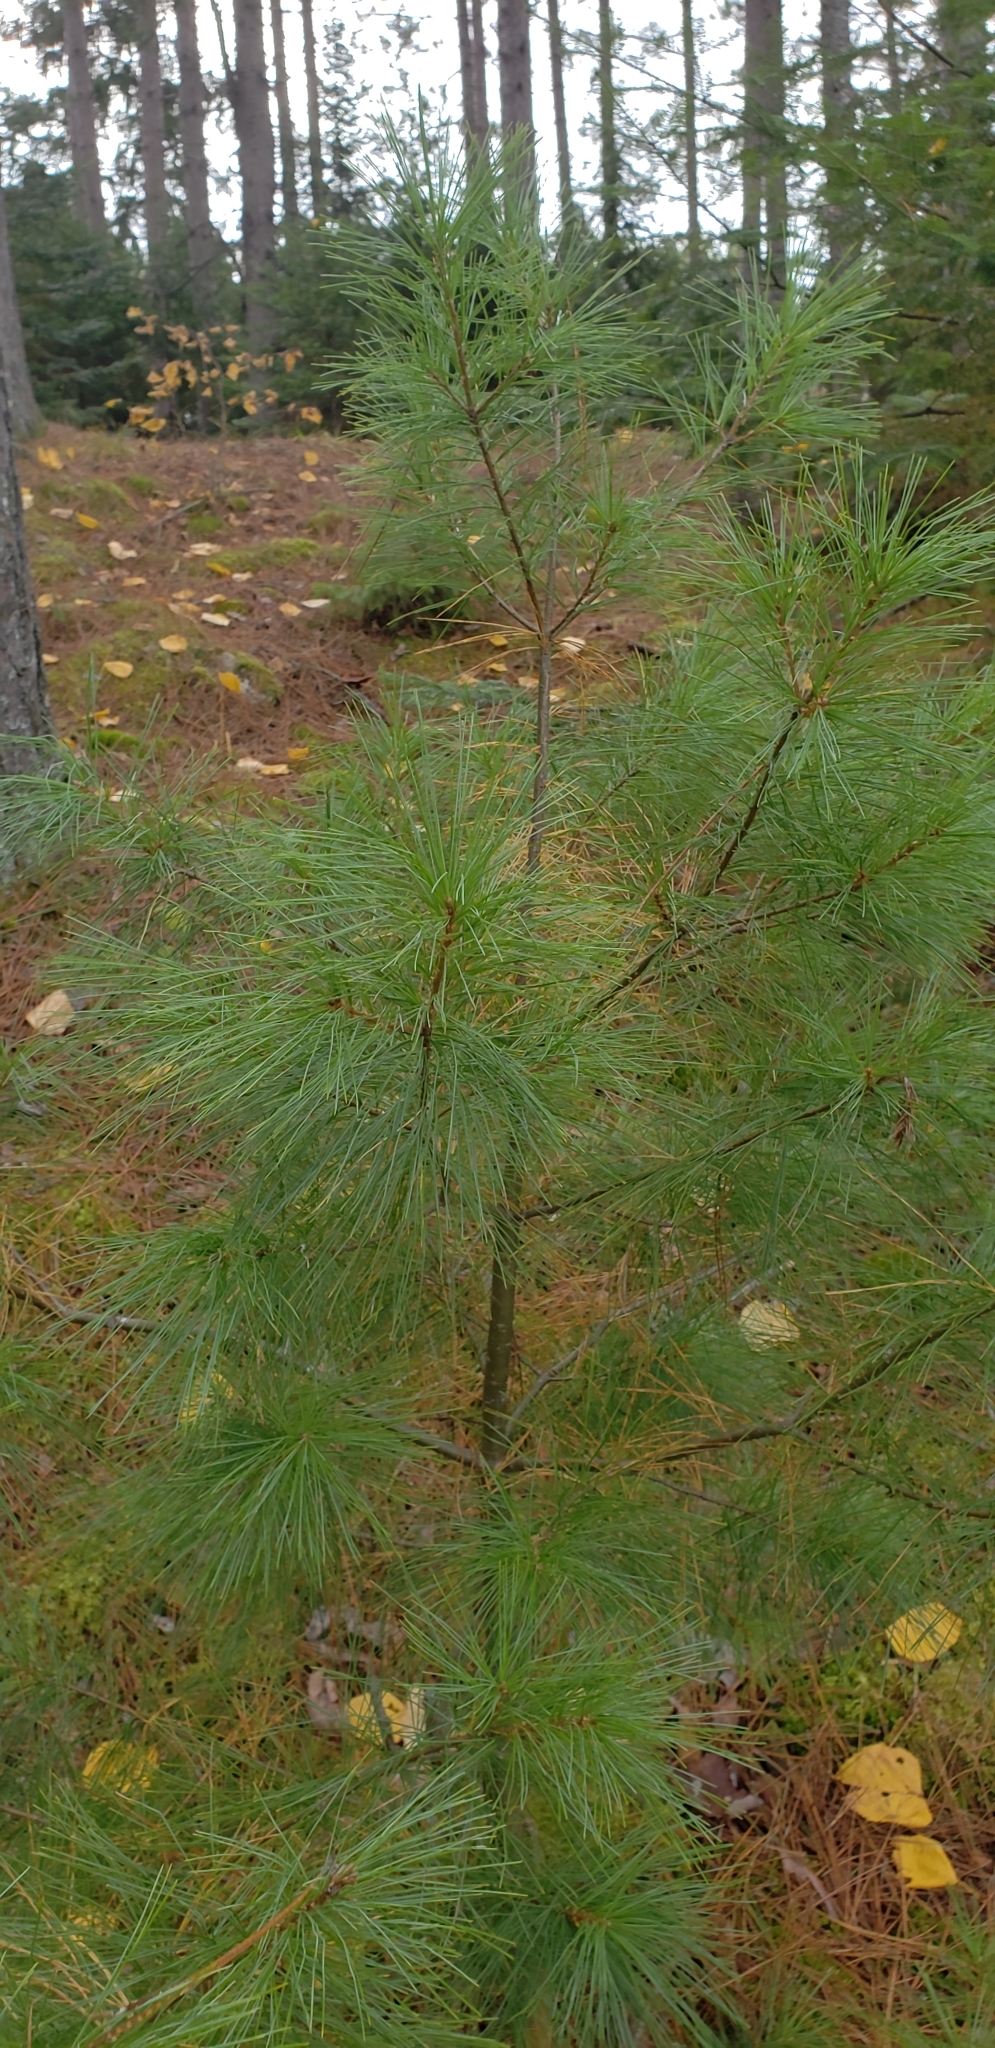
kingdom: Plantae
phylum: Tracheophyta
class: Pinopsida
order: Pinales
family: Pinaceae
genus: Pinus
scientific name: Pinus strobus
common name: Weymouth pine
